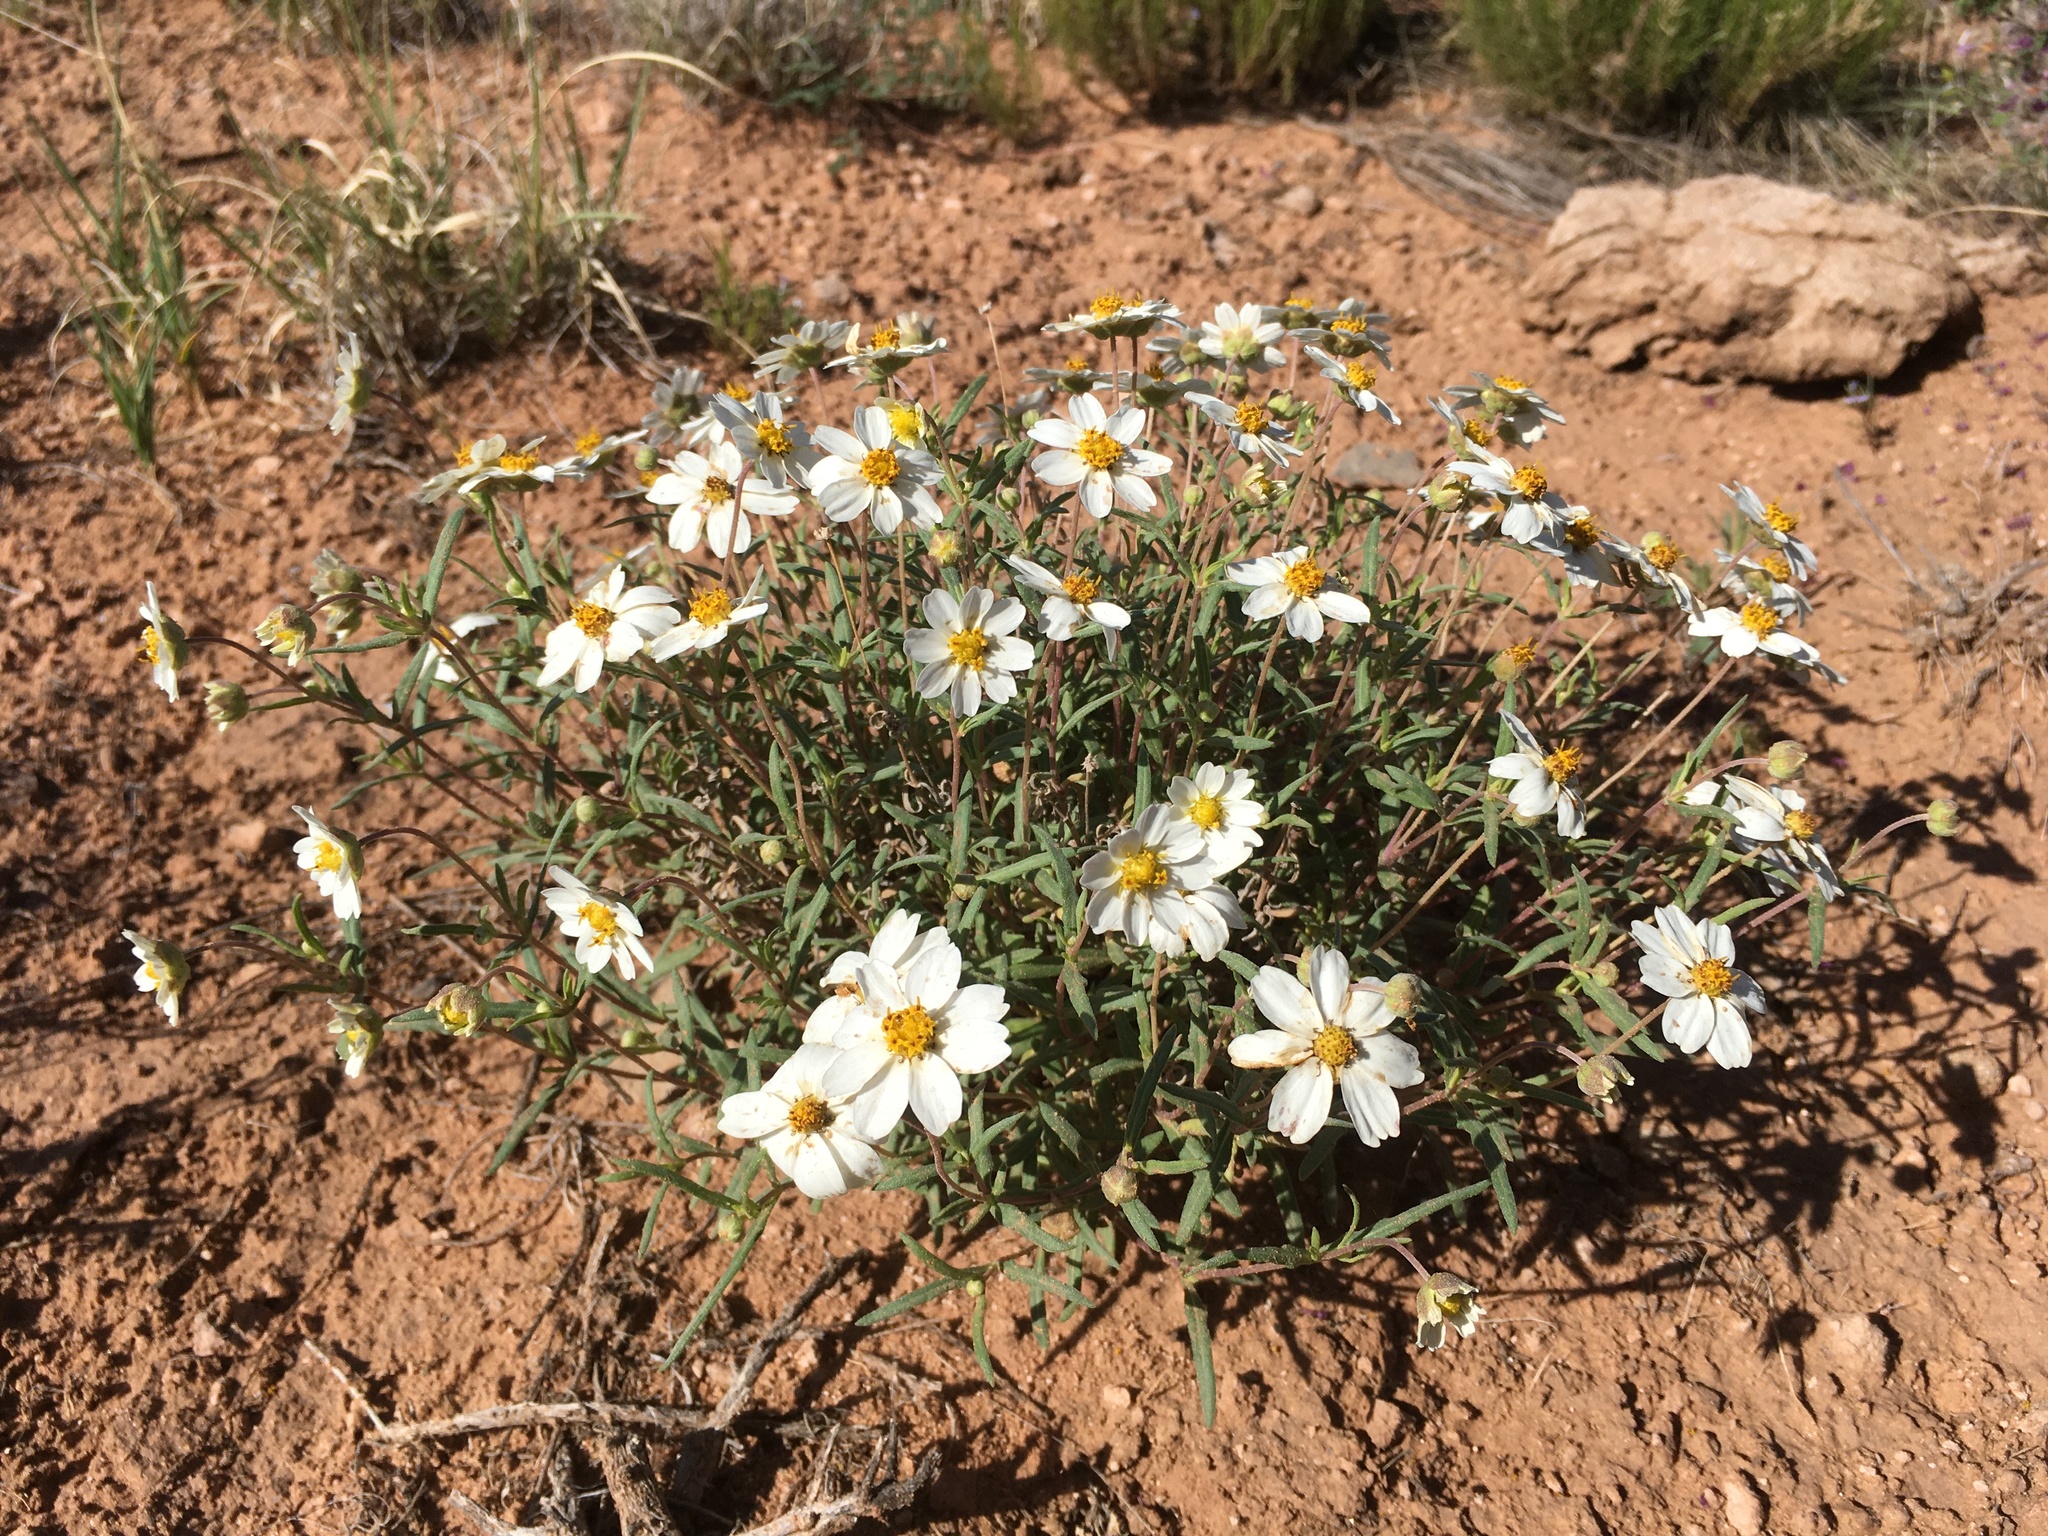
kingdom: Plantae
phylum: Tracheophyta
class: Magnoliopsida
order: Asterales
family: Asteraceae
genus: Melampodium
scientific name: Melampodium leucanthum
